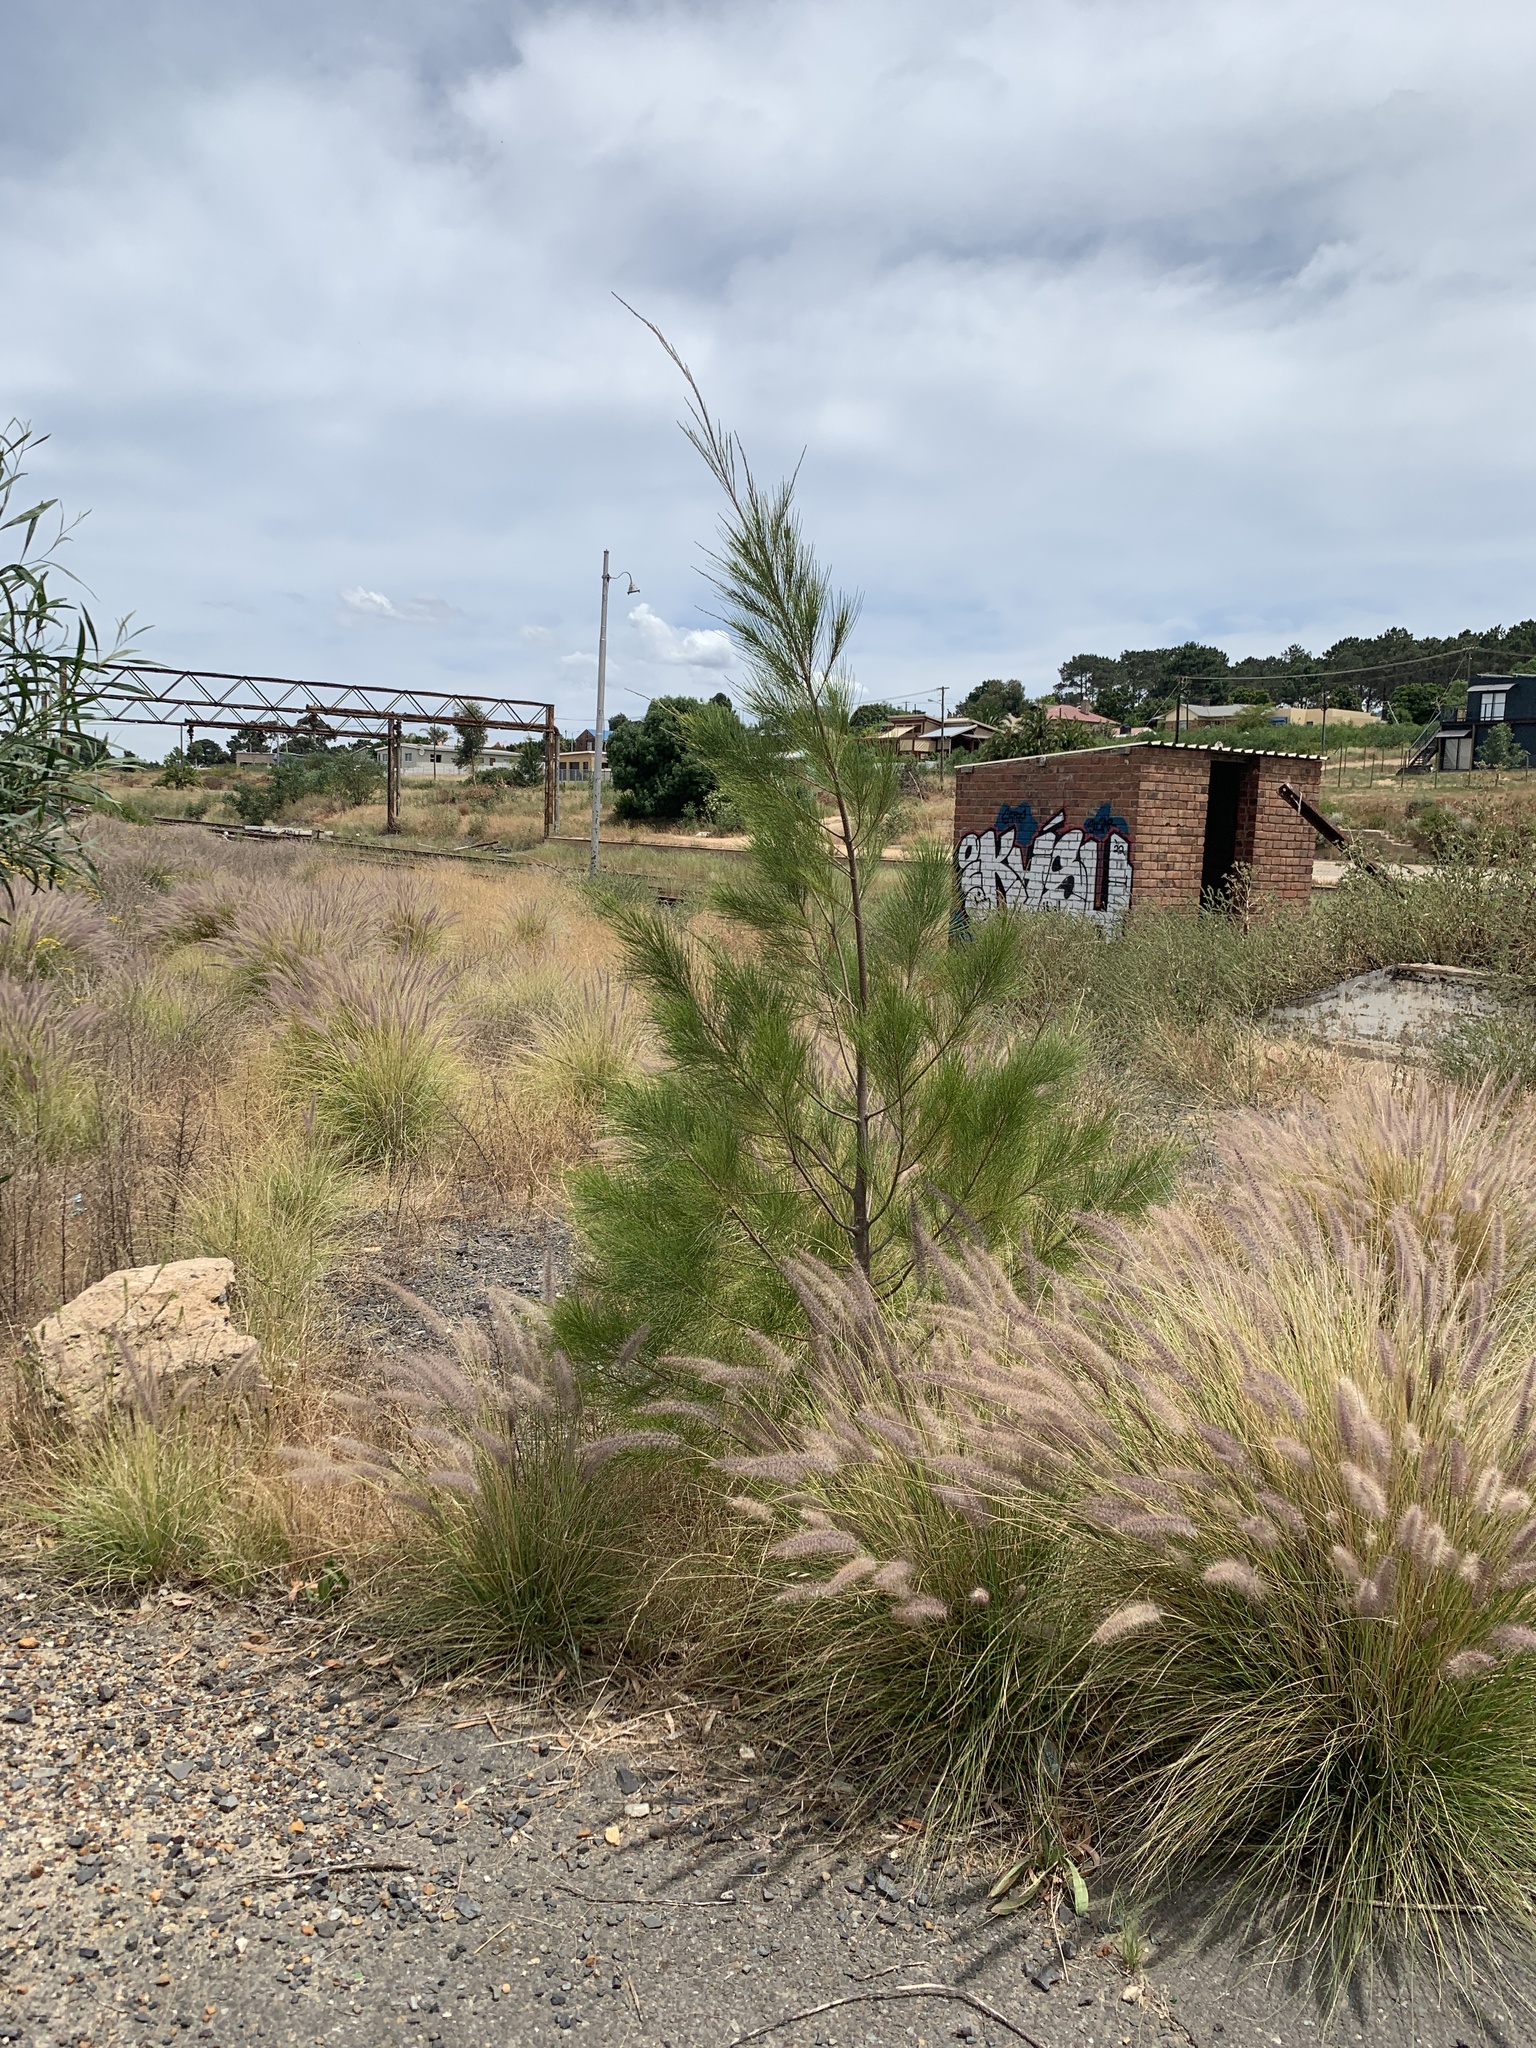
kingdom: Plantae
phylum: Tracheophyta
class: Magnoliopsida
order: Fagales
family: Casuarinaceae
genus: Casuarina
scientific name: Casuarina cunninghamiana
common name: River sheoak
